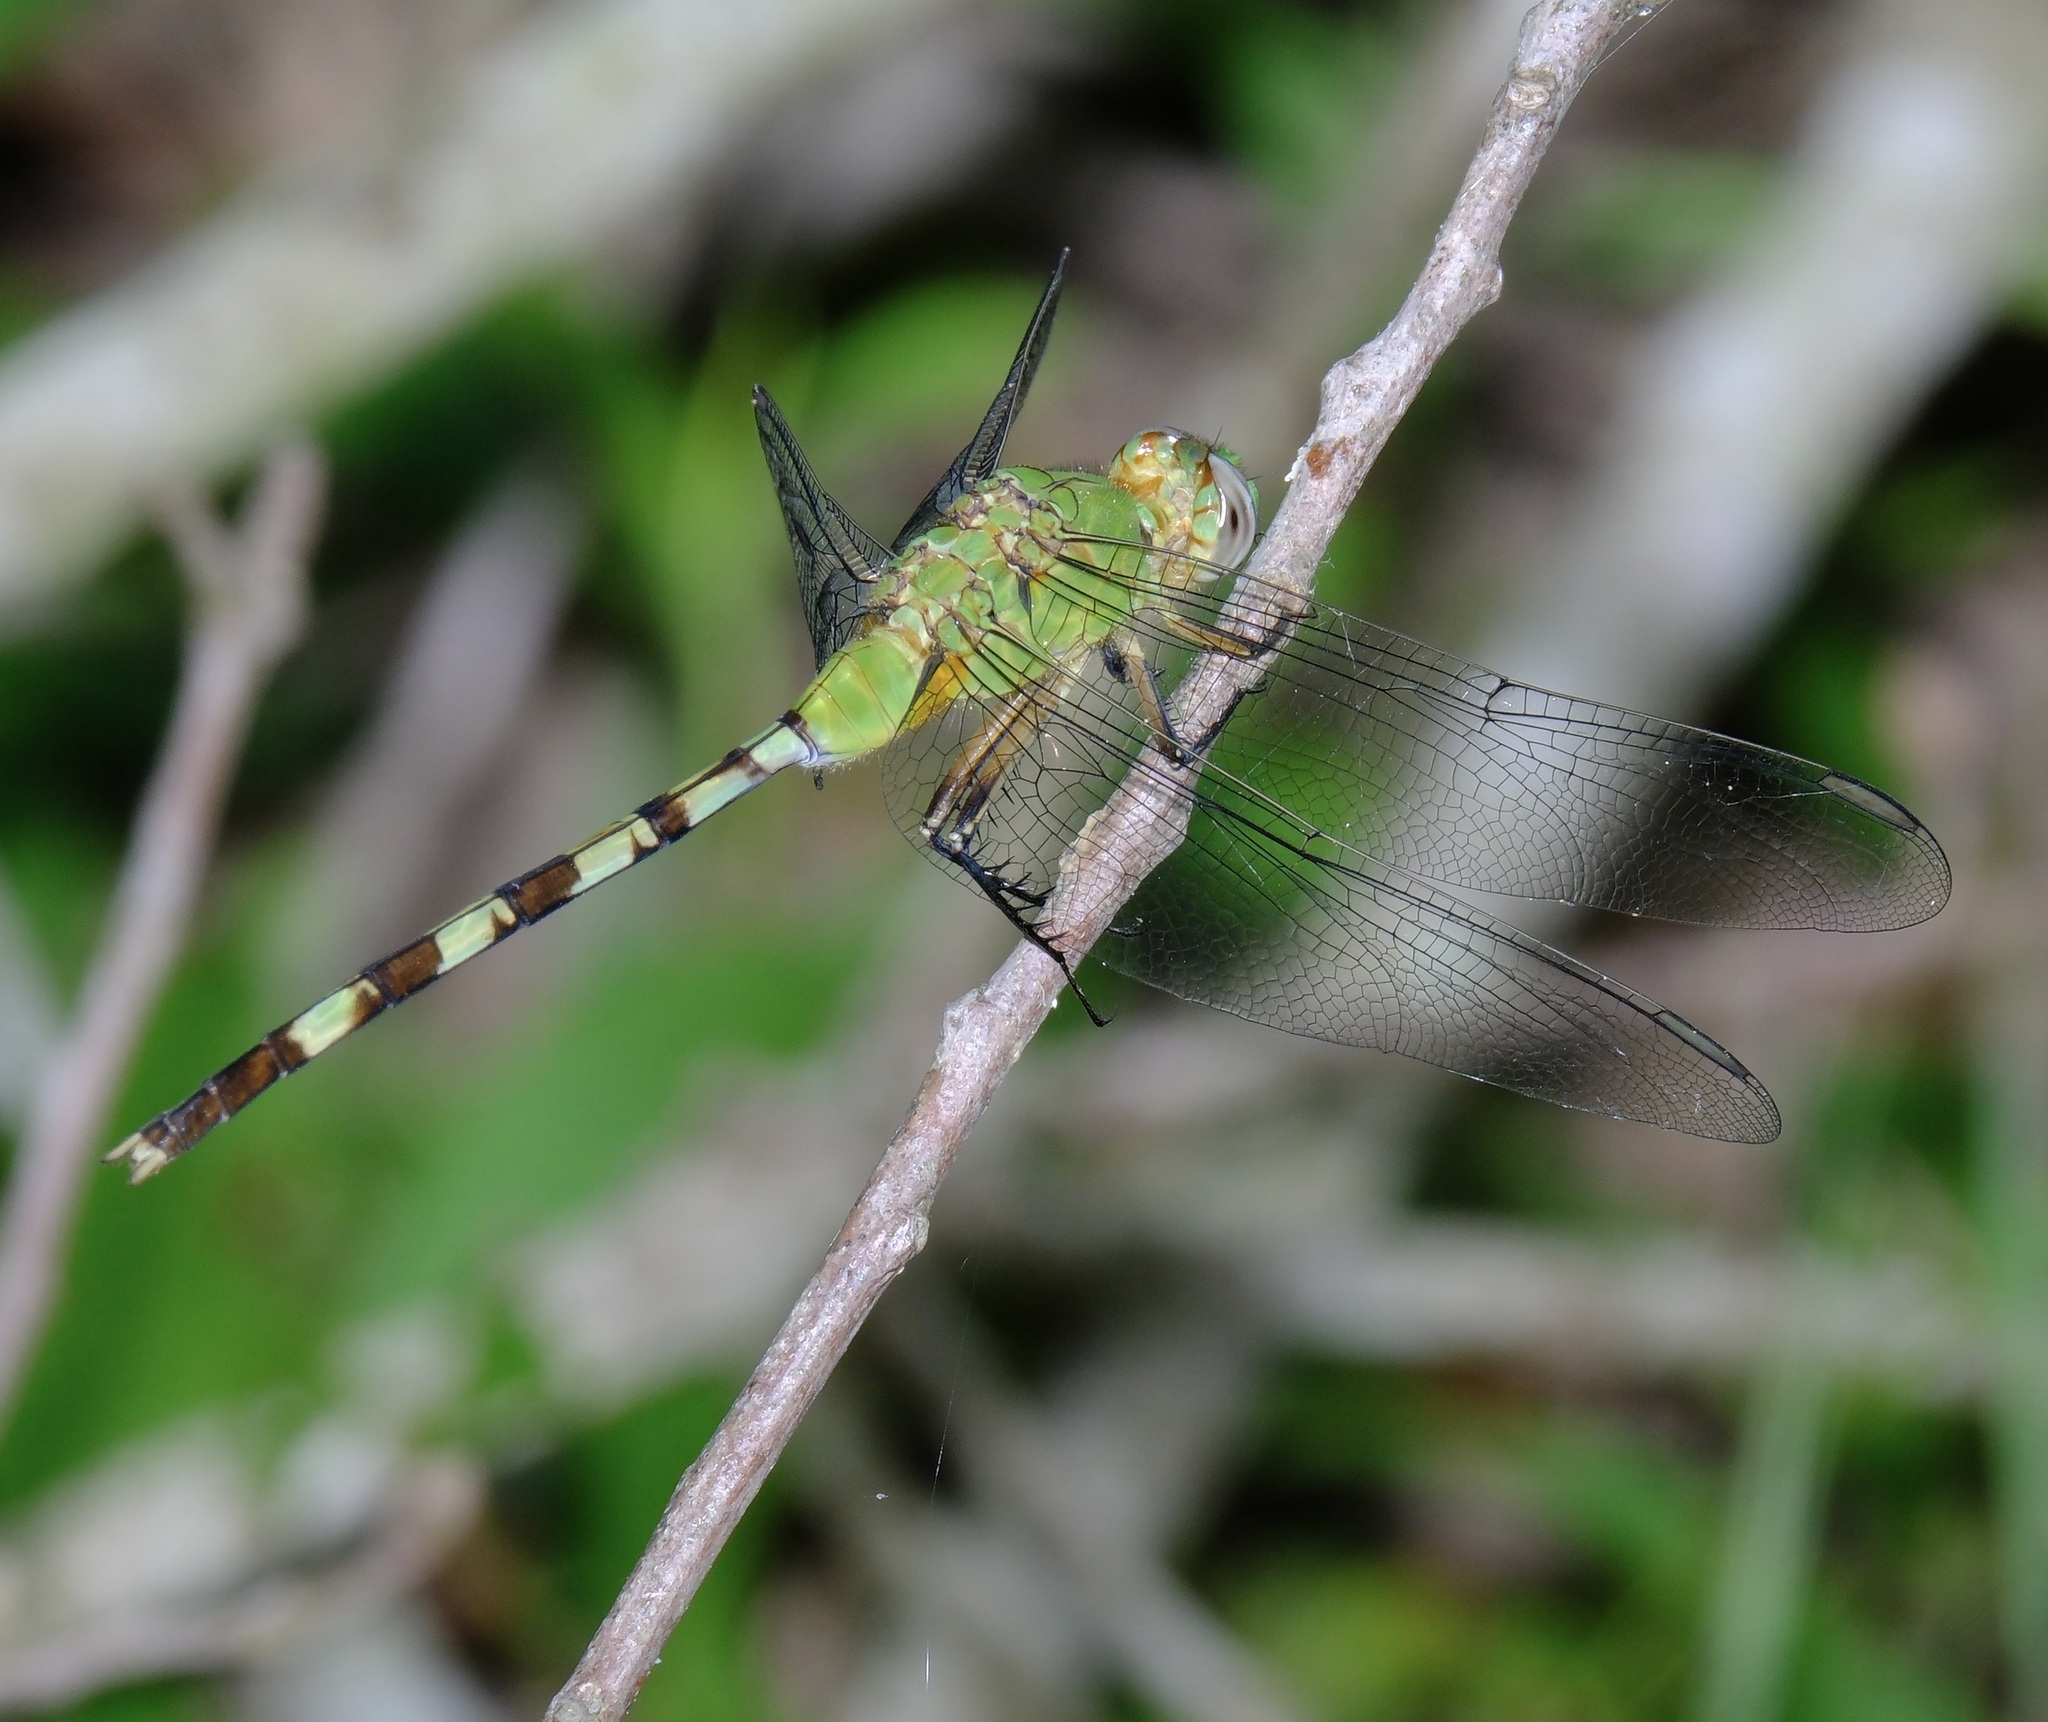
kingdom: Animalia
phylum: Arthropoda
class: Insecta
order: Odonata
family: Libellulidae
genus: Erythemis
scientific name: Erythemis vesiculosa
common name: Great pondhawk
